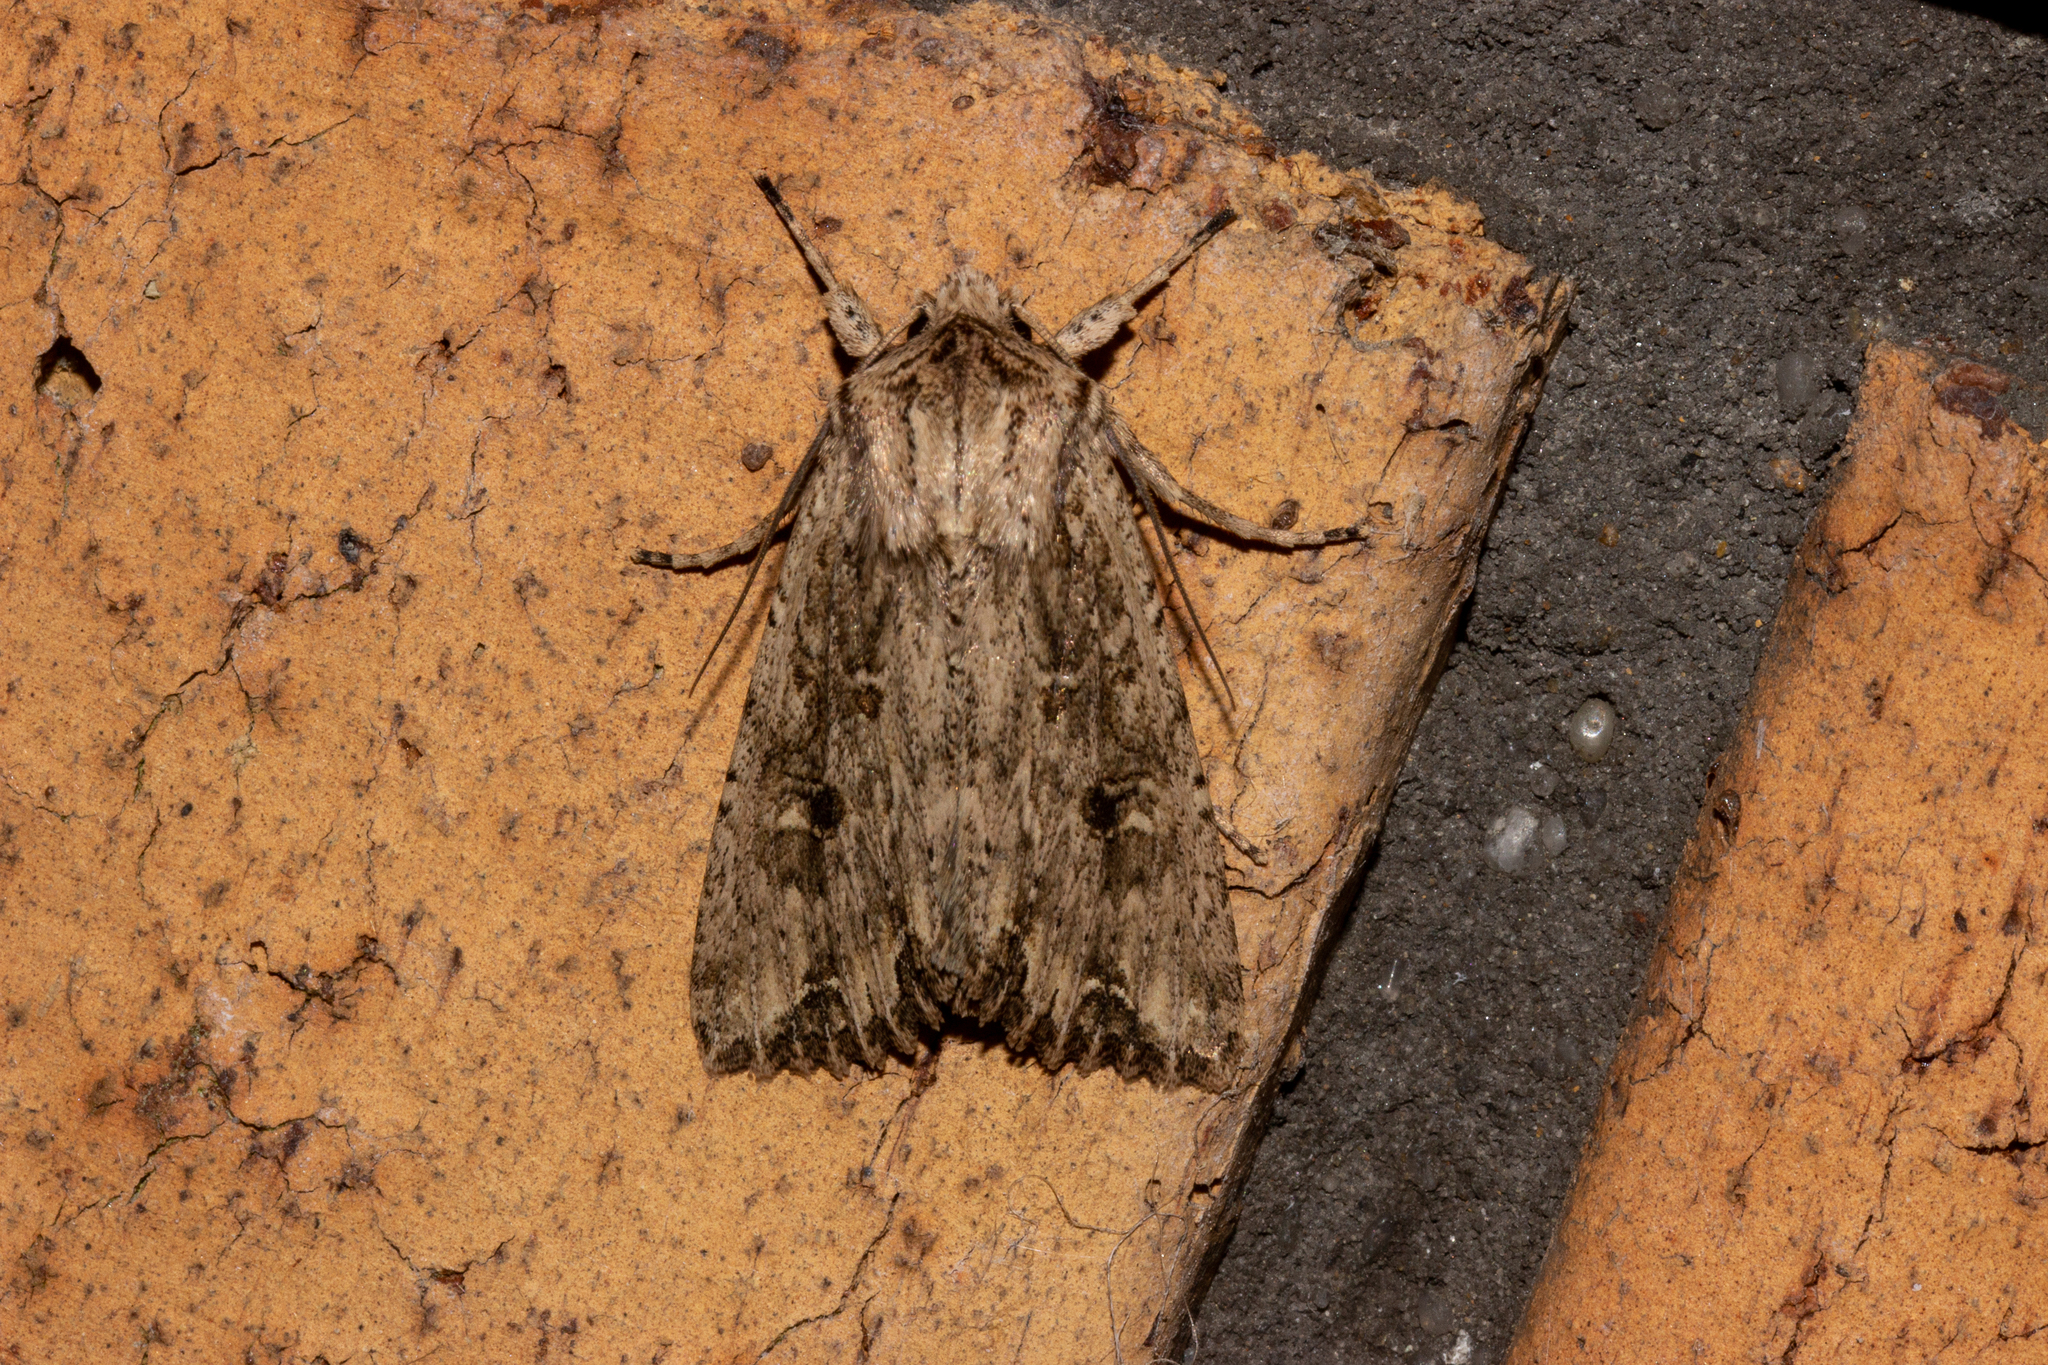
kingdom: Animalia
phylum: Arthropoda
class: Insecta
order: Lepidoptera
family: Noctuidae
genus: Ichneutica
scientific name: Ichneutica lignana
